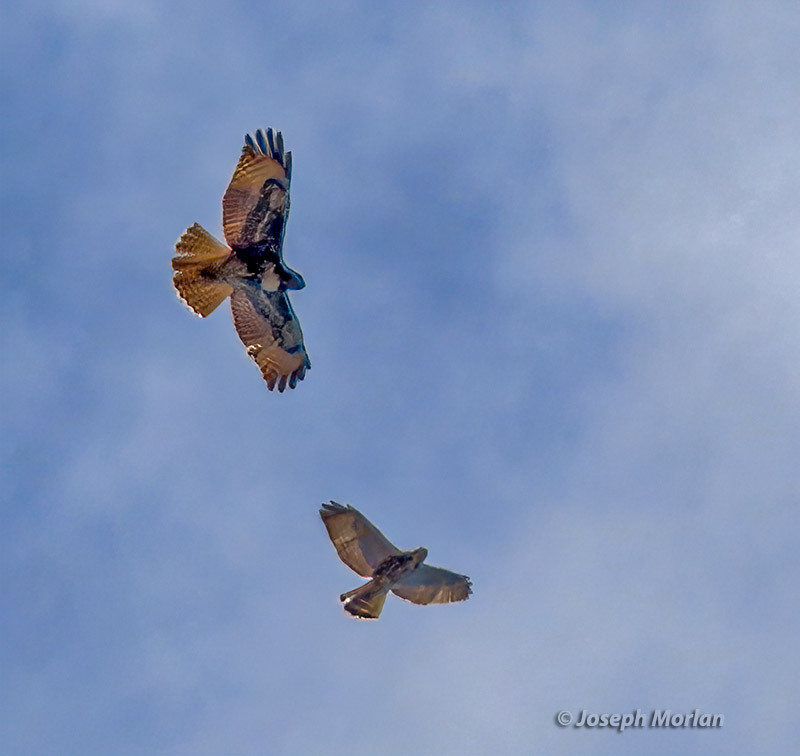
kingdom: Animalia
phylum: Chordata
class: Aves
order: Accipitriformes
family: Accipitridae
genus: Buteo
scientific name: Buteo jamaicensis
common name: Red-tailed hawk
